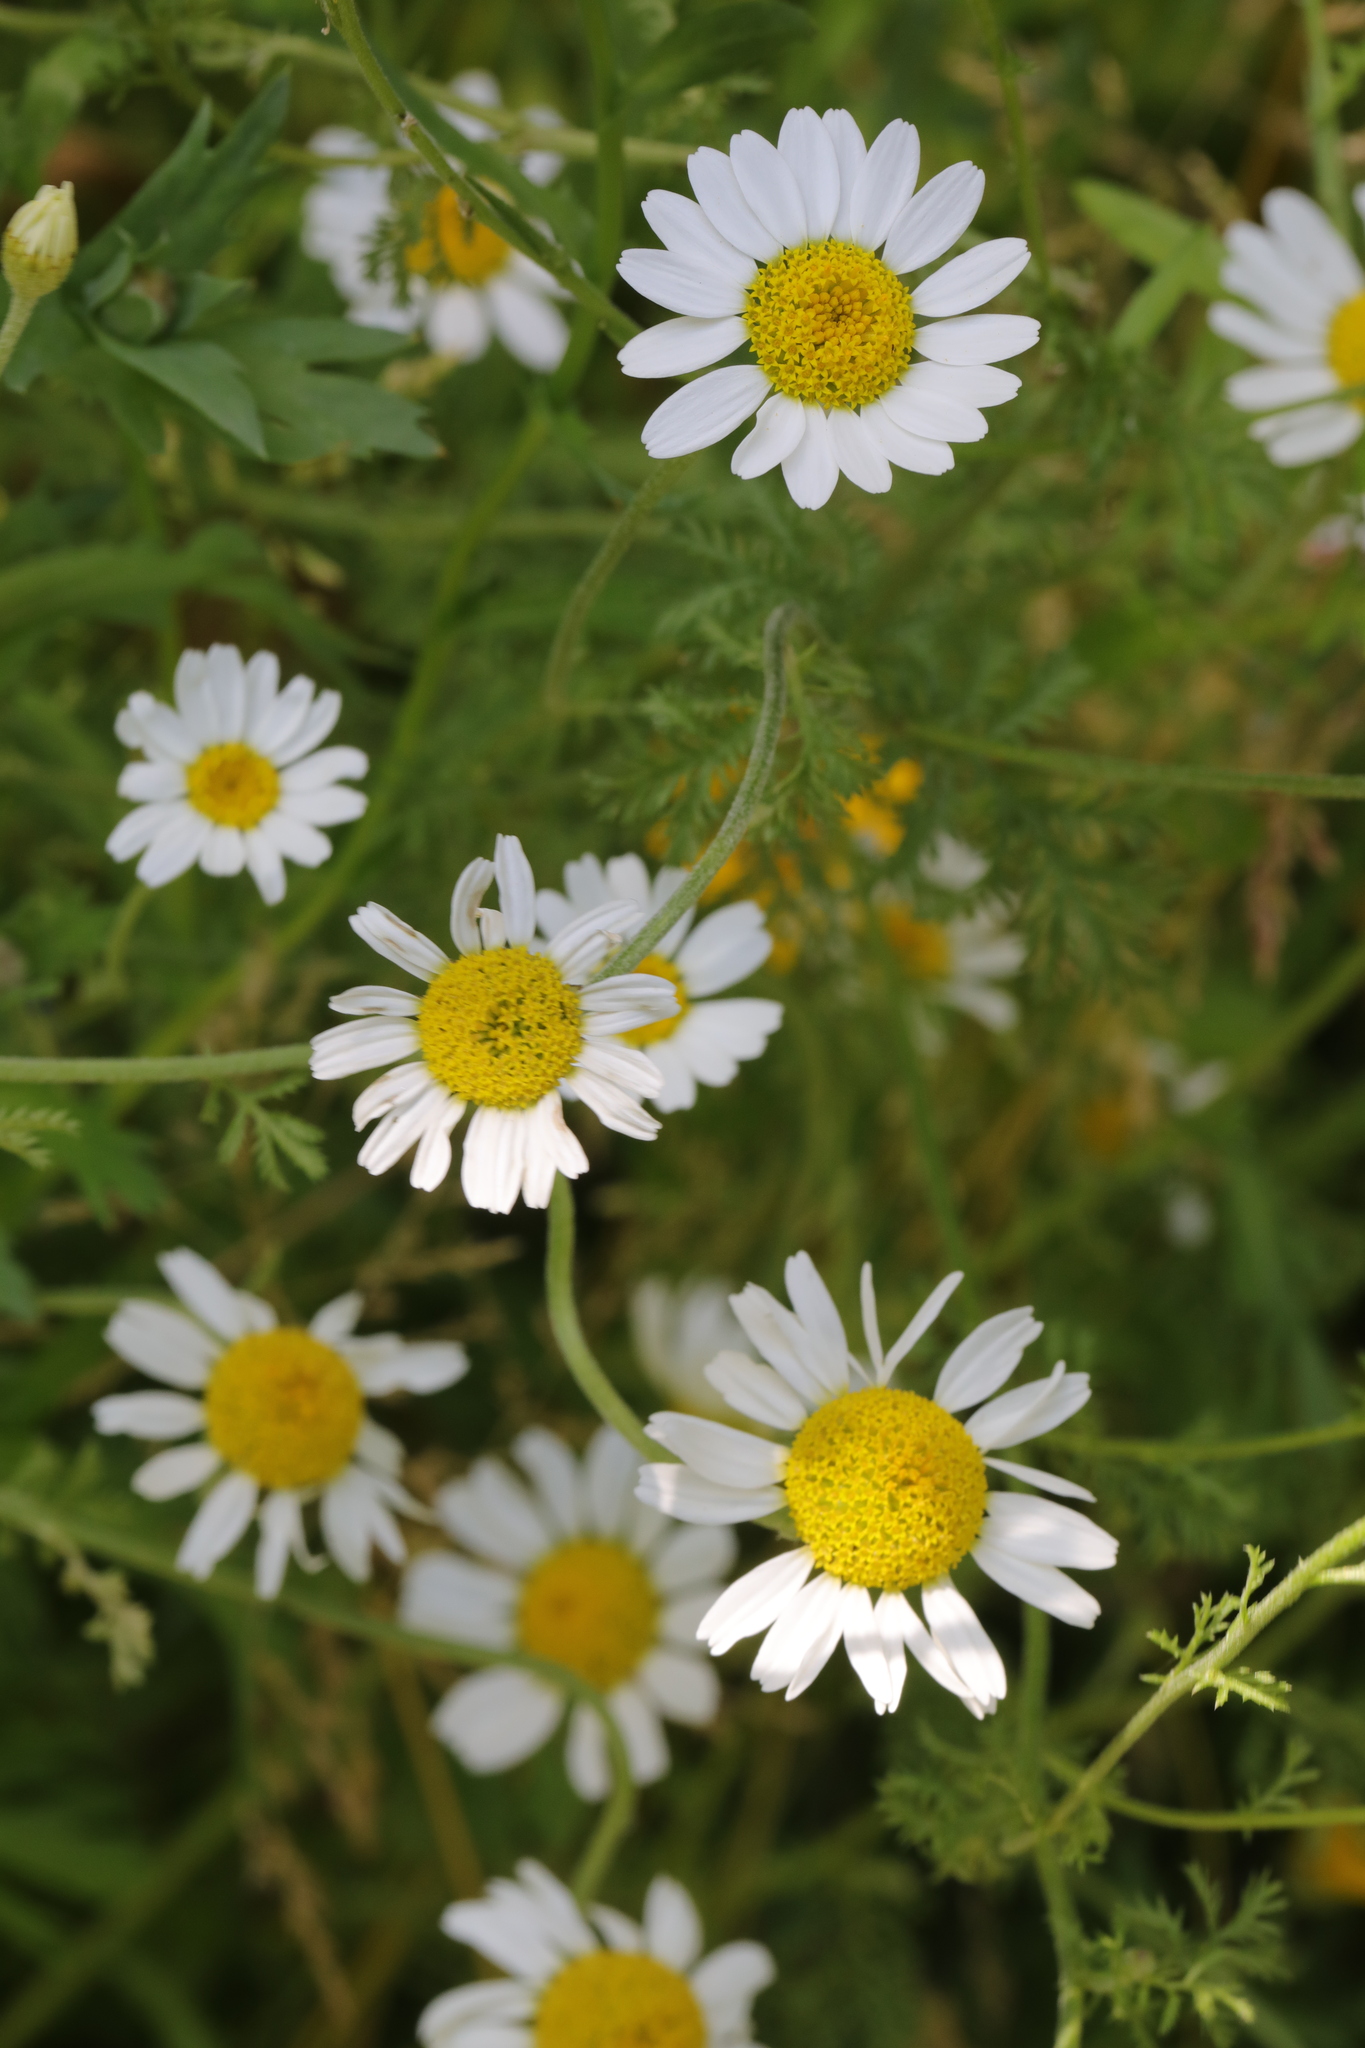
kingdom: Plantae
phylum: Tracheophyta
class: Magnoliopsida
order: Asterales
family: Asteraceae
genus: Matricaria
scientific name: Matricaria chamomilla
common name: Scented mayweed
